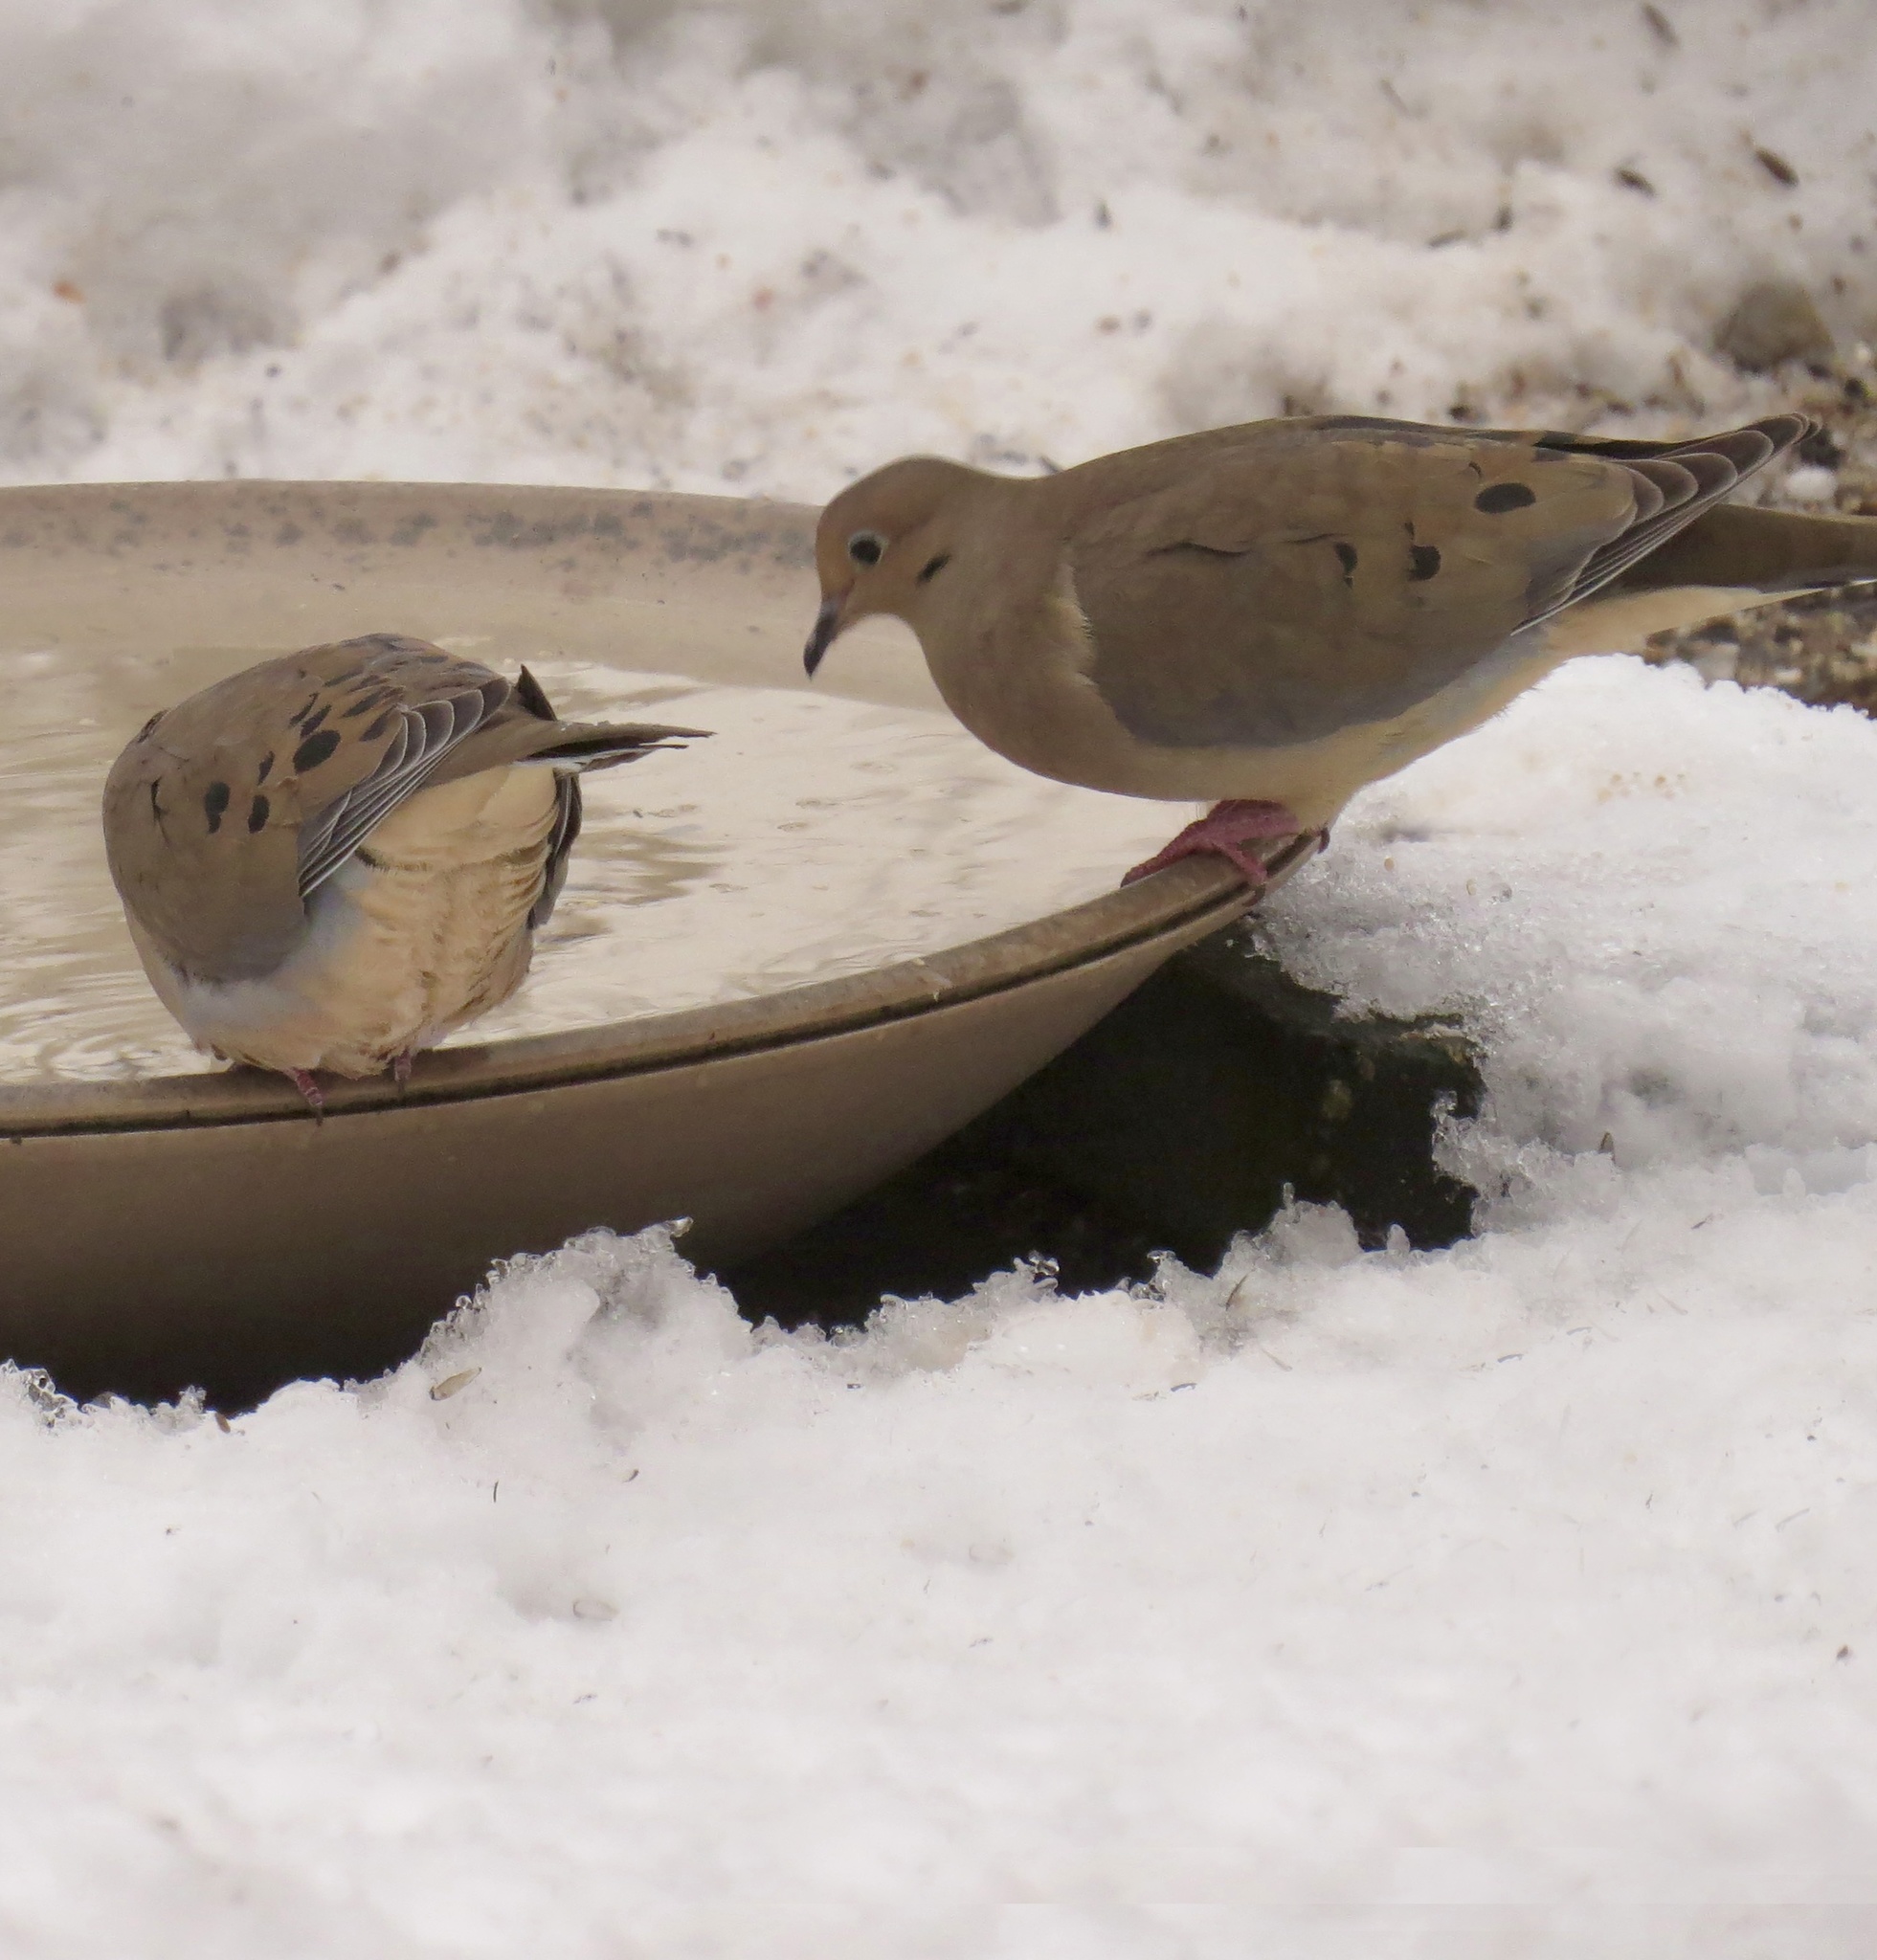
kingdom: Animalia
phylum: Chordata
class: Aves
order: Columbiformes
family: Columbidae
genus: Zenaida
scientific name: Zenaida macroura
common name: Mourning dove
